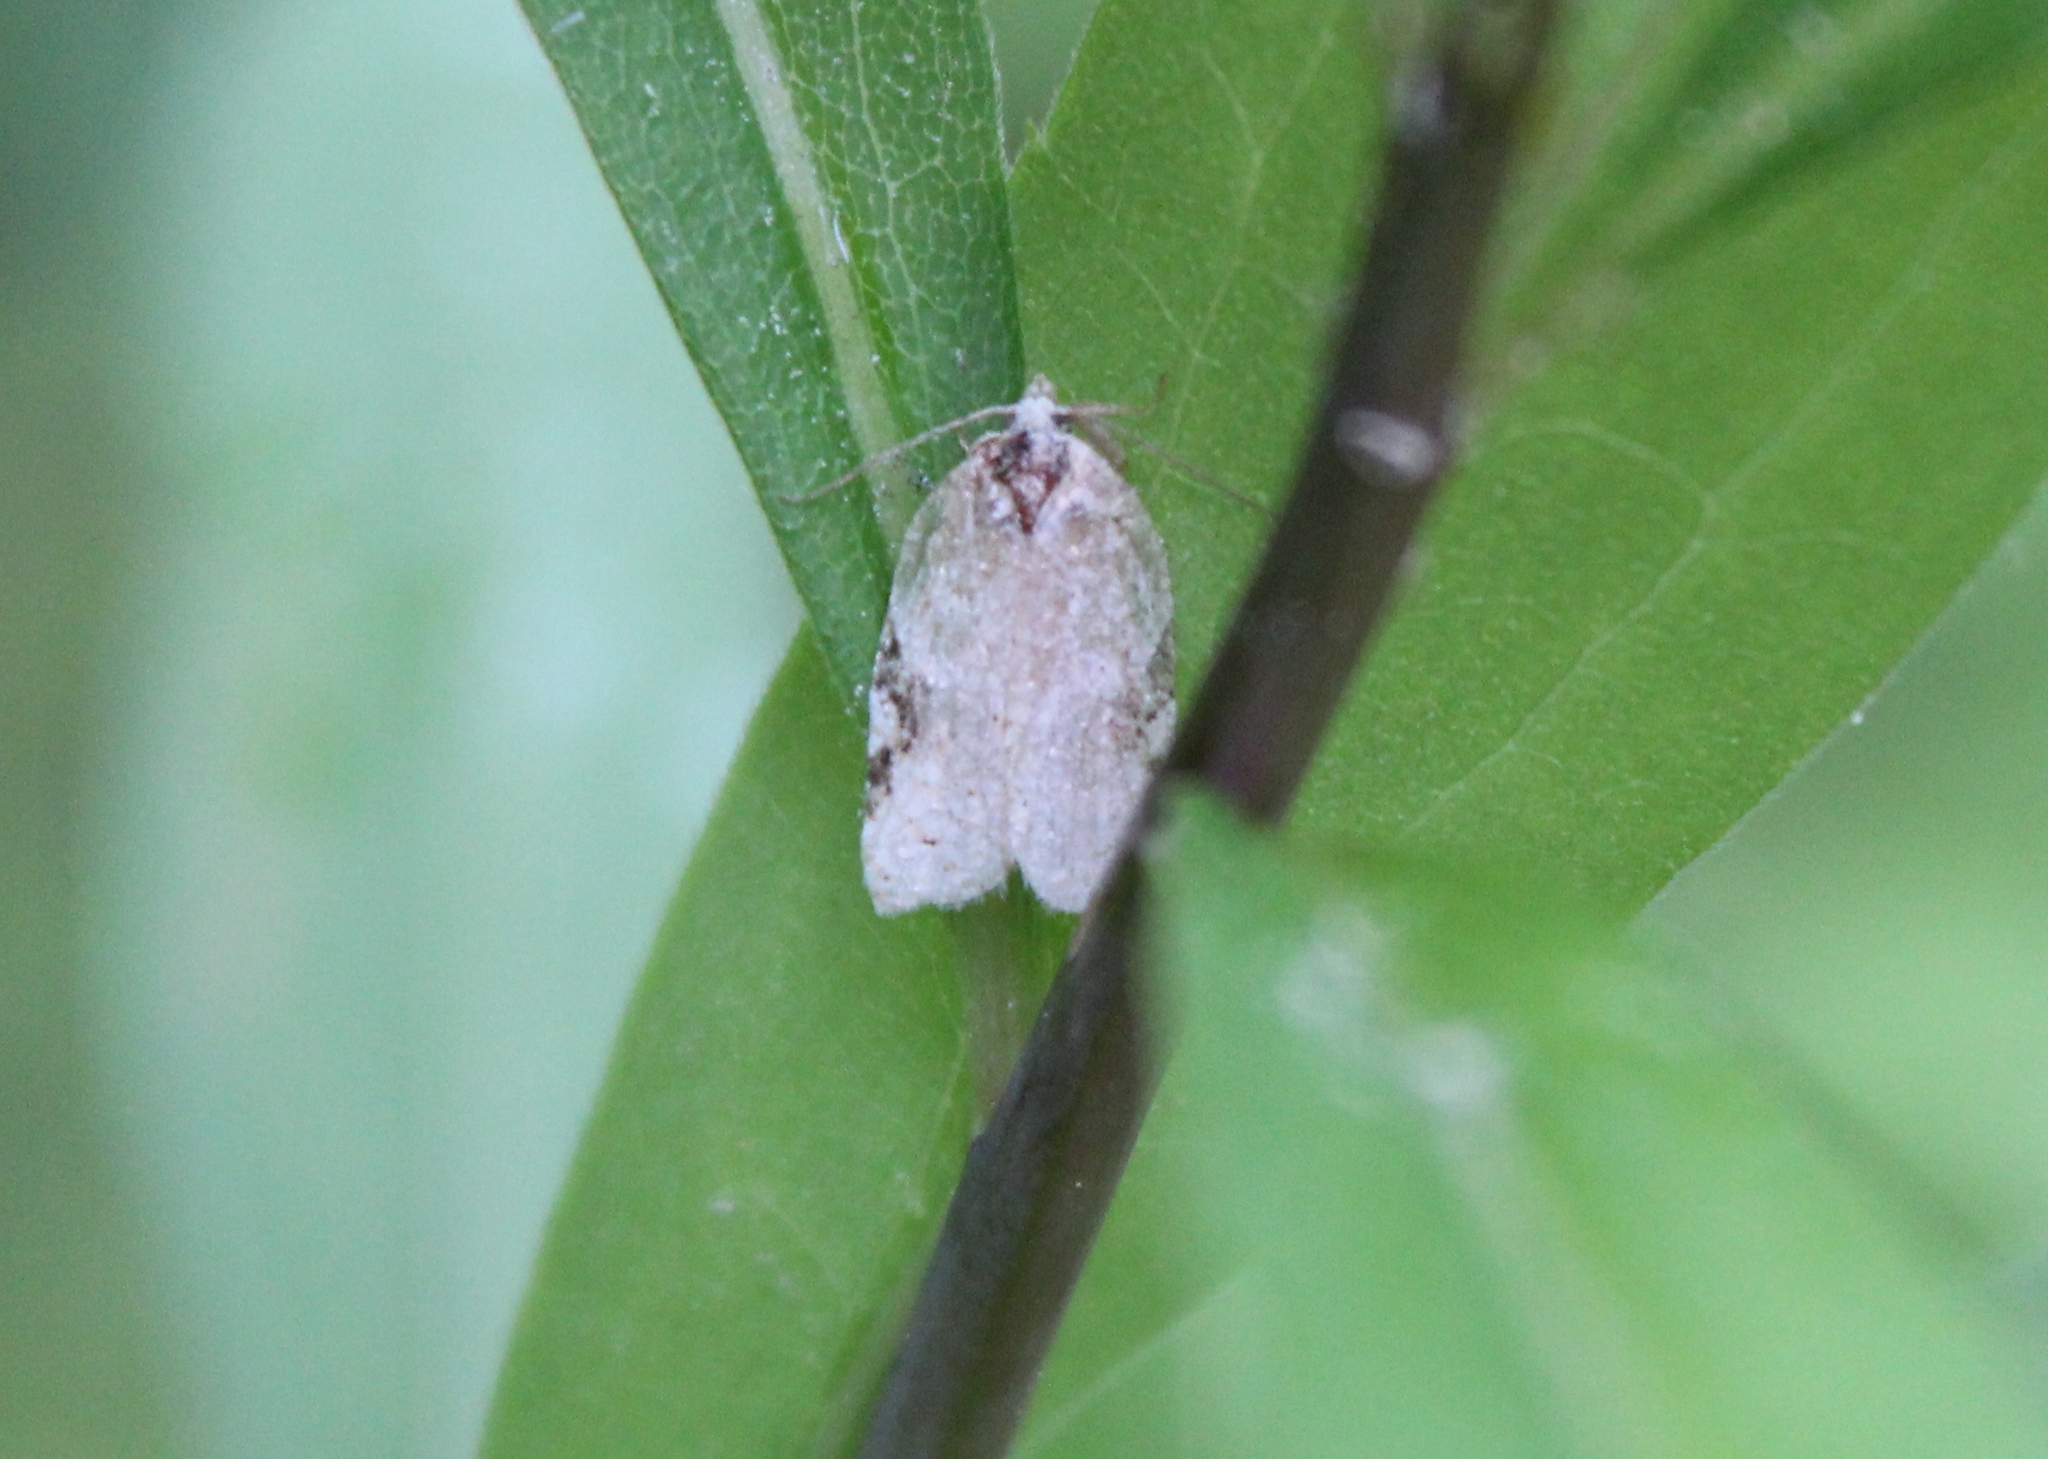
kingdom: Animalia
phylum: Arthropoda
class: Insecta
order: Lepidoptera
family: Tortricidae
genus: Argyrotaenia
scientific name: Argyrotaenia mariana
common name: Gray-banded leafroller moth
